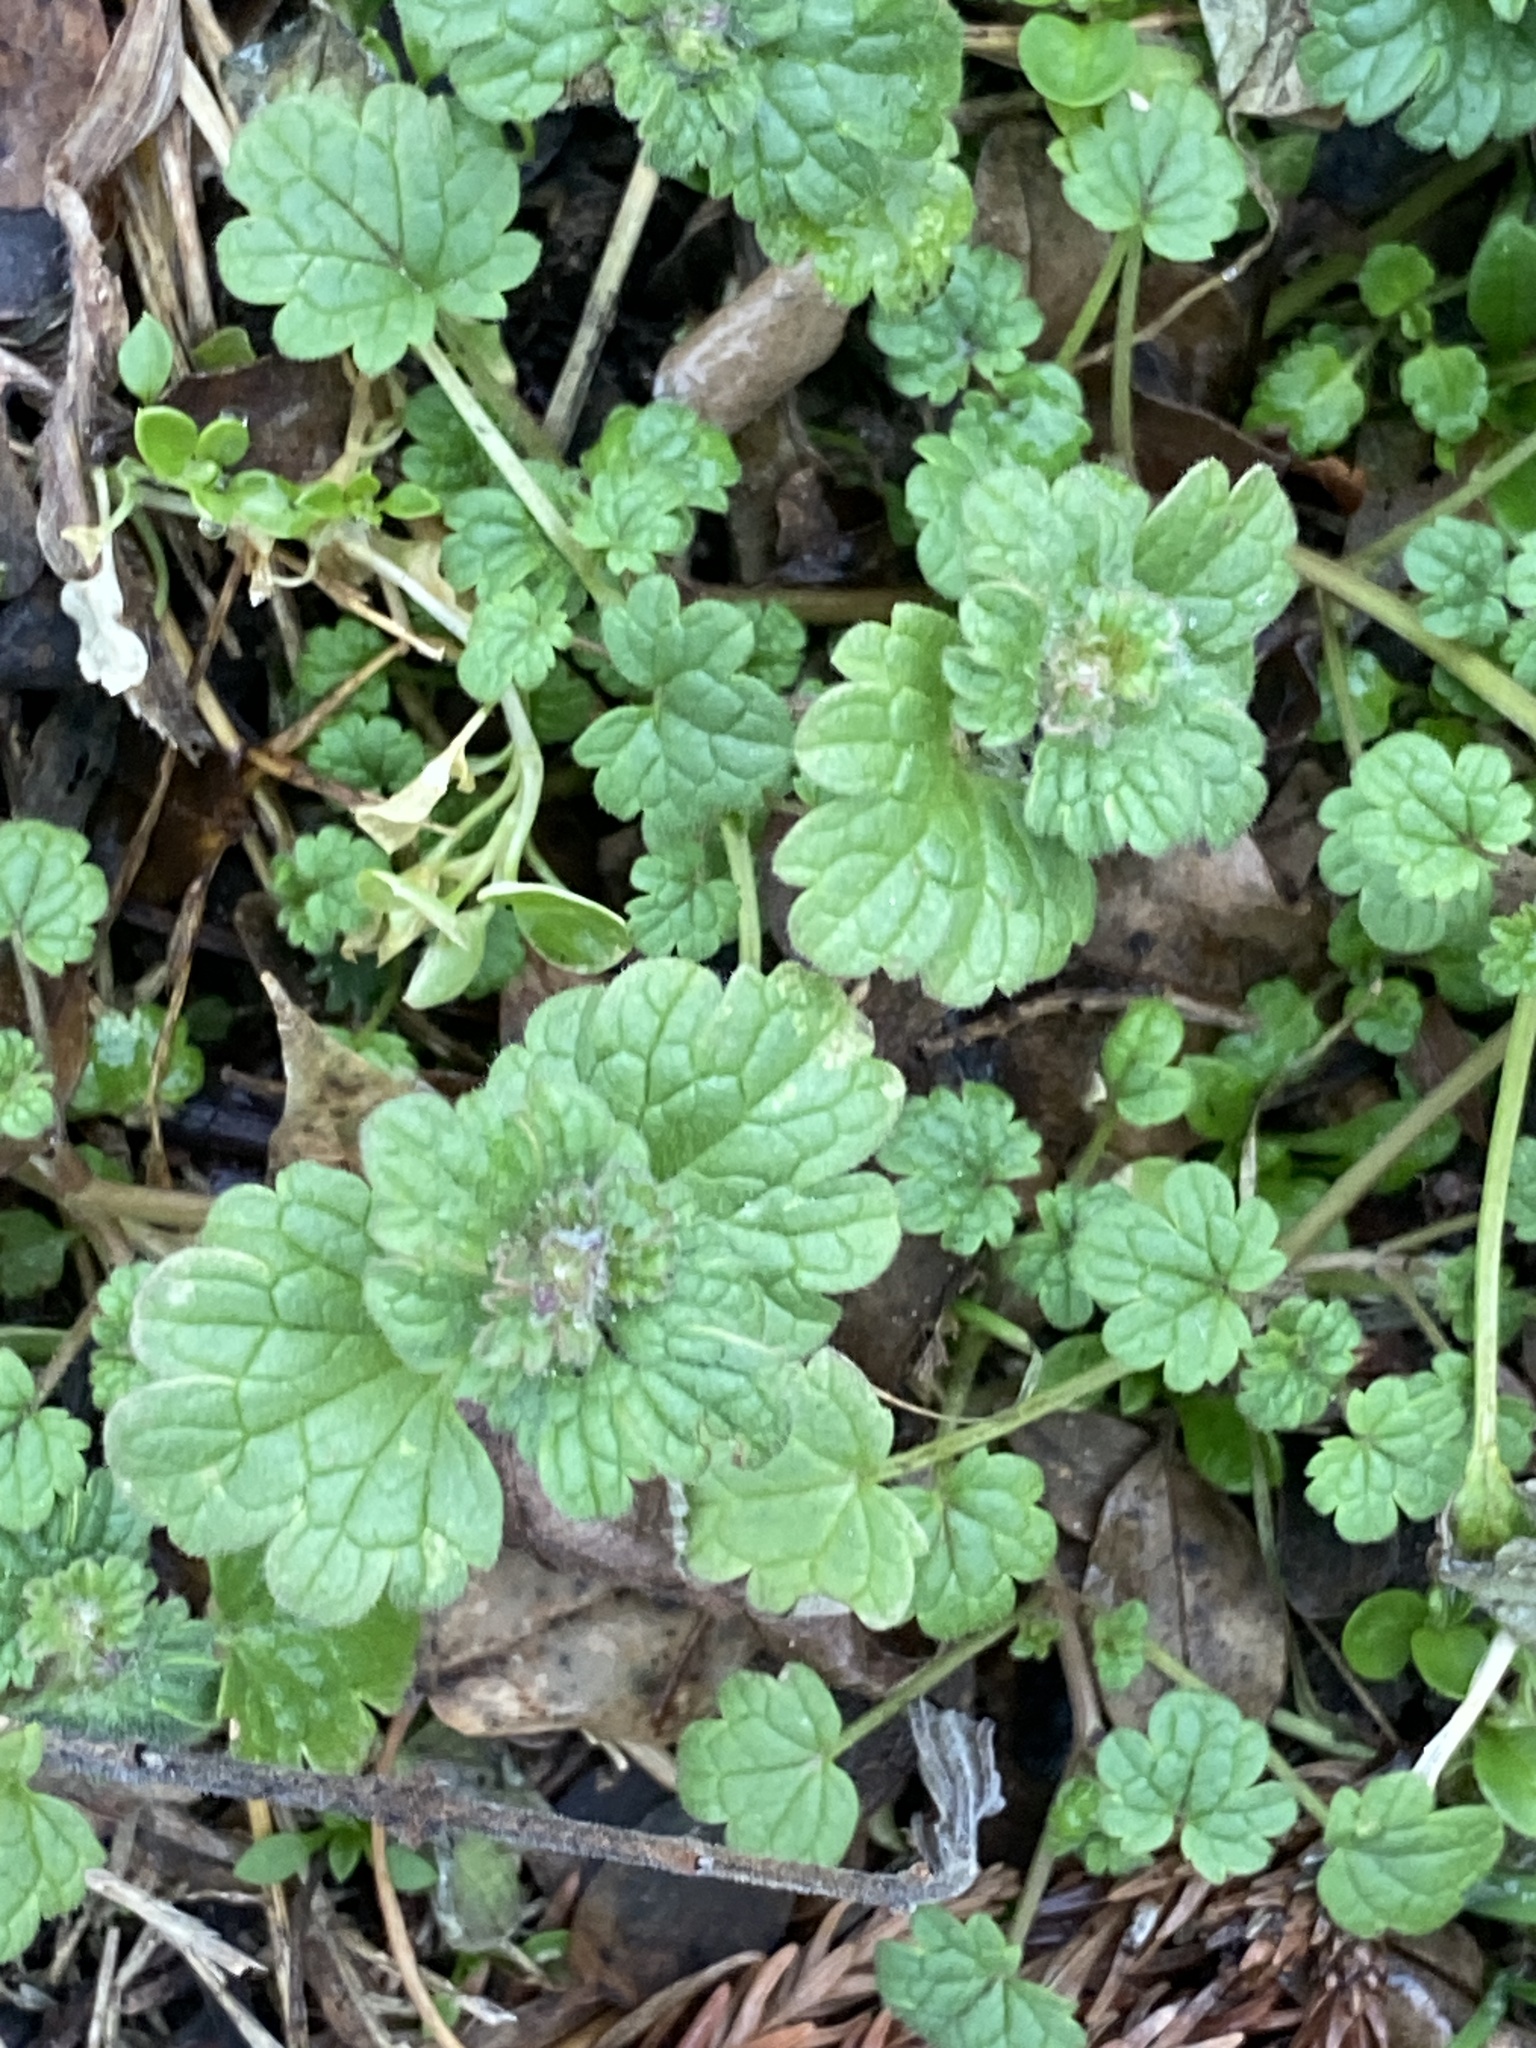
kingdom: Plantae
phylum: Tracheophyta
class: Magnoliopsida
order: Lamiales
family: Lamiaceae
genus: Lamium
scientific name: Lamium amplexicaule
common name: Henbit dead-nettle
